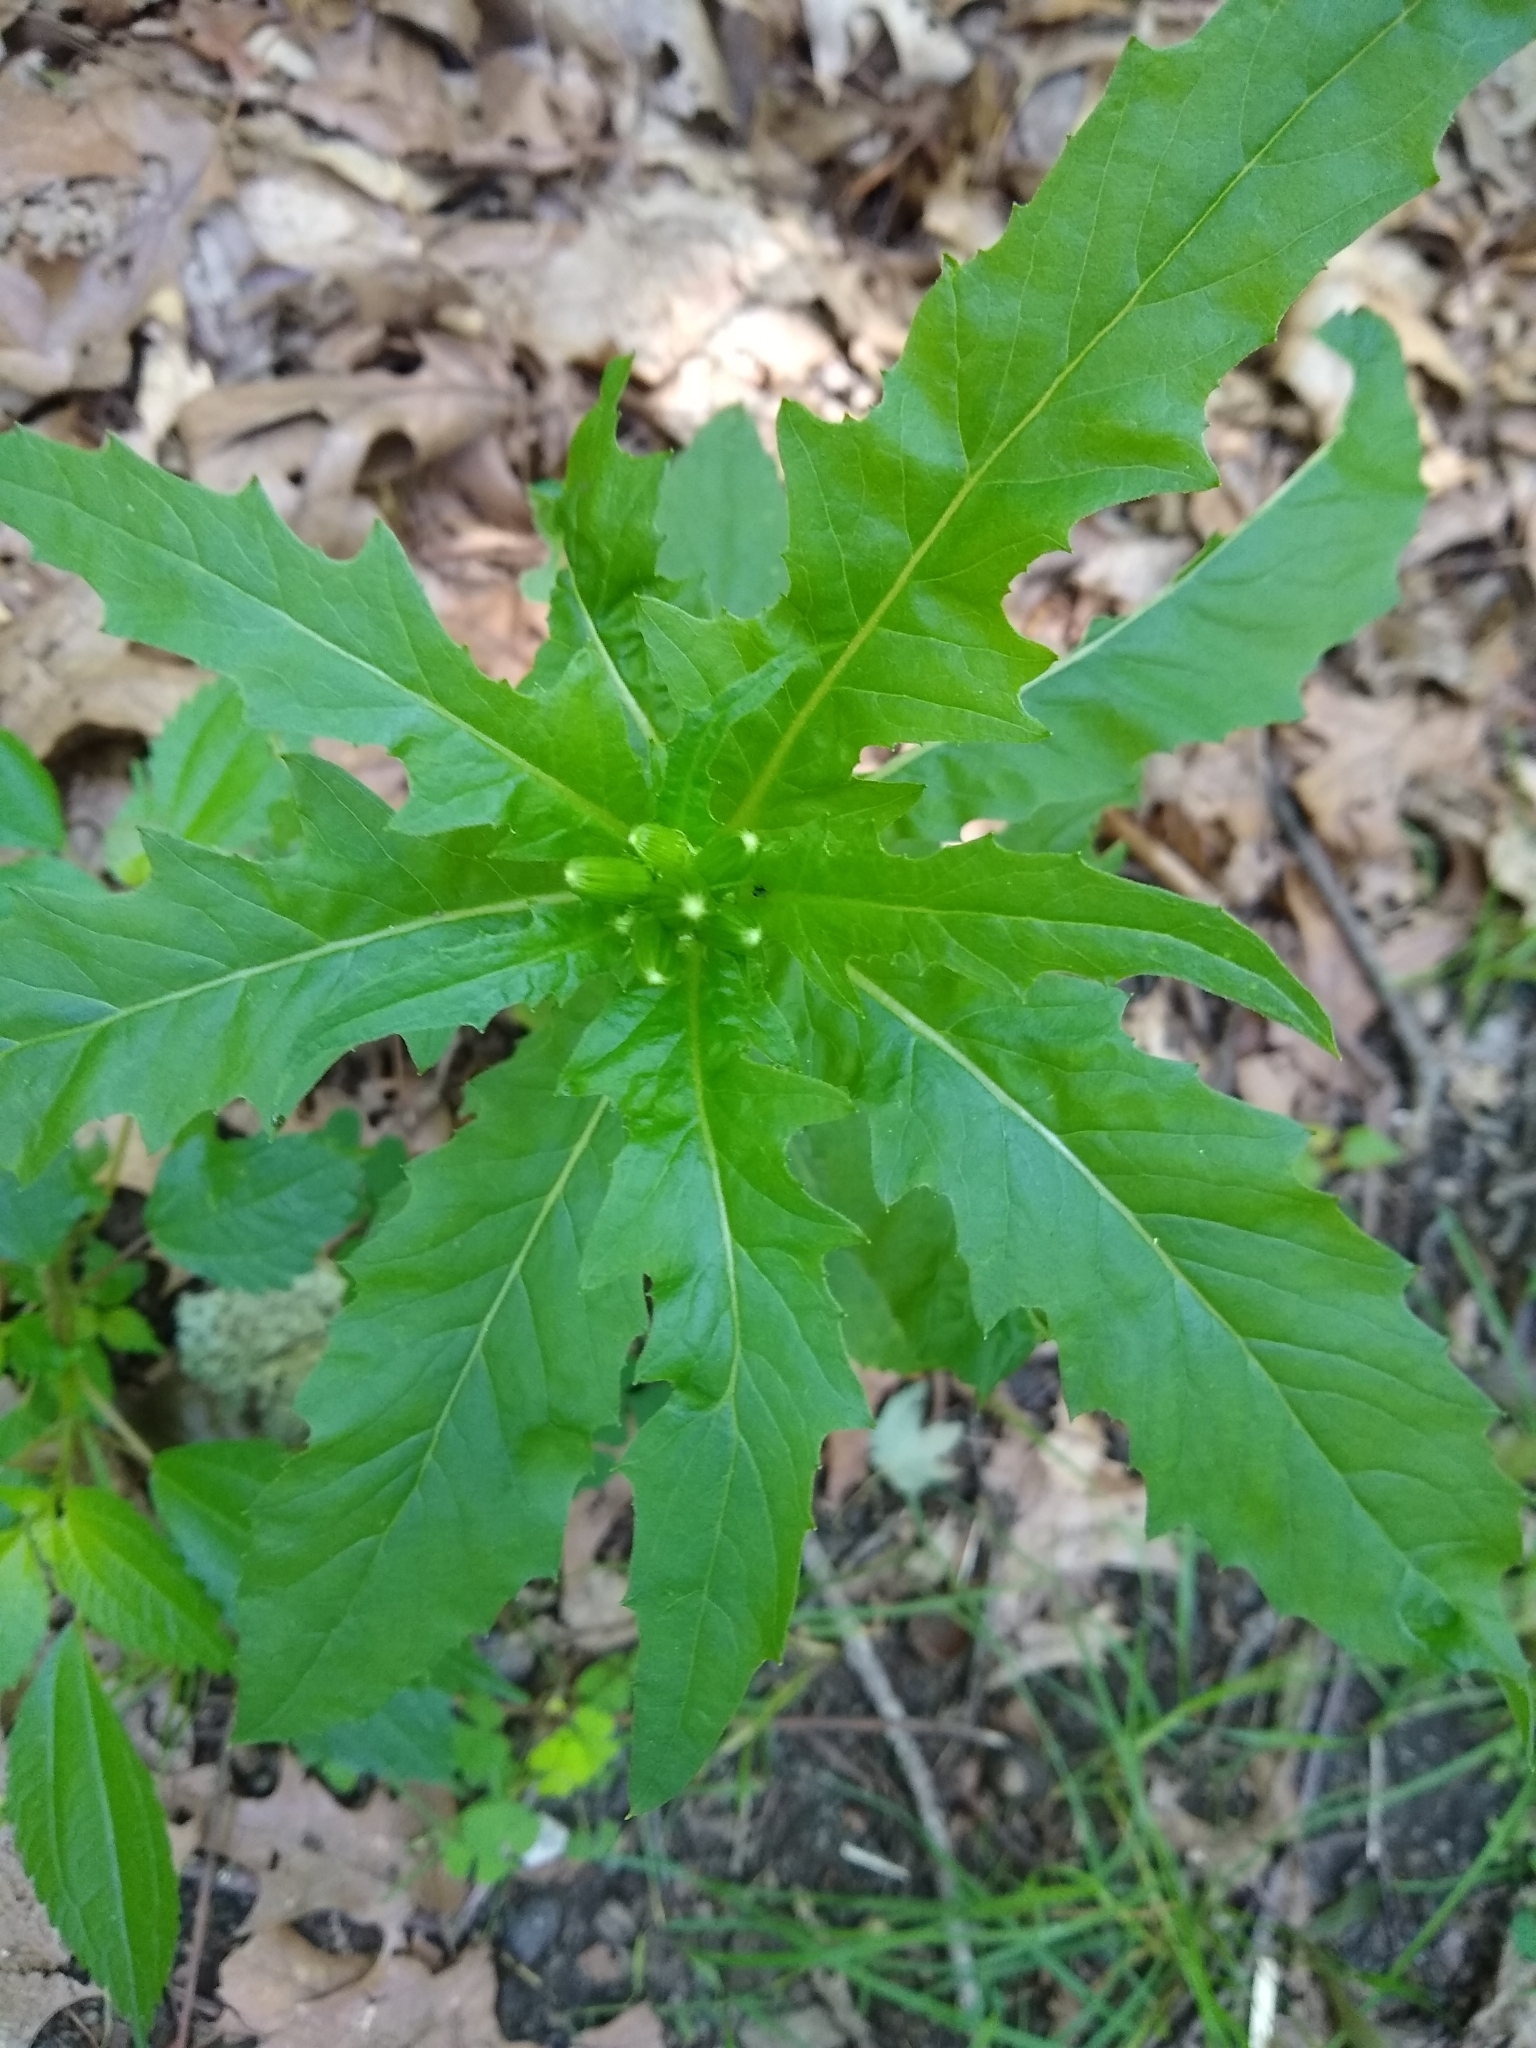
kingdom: Plantae
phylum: Tracheophyta
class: Magnoliopsida
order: Asterales
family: Asteraceae
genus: Erechtites
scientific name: Erechtites hieraciifolius
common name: American burnweed
